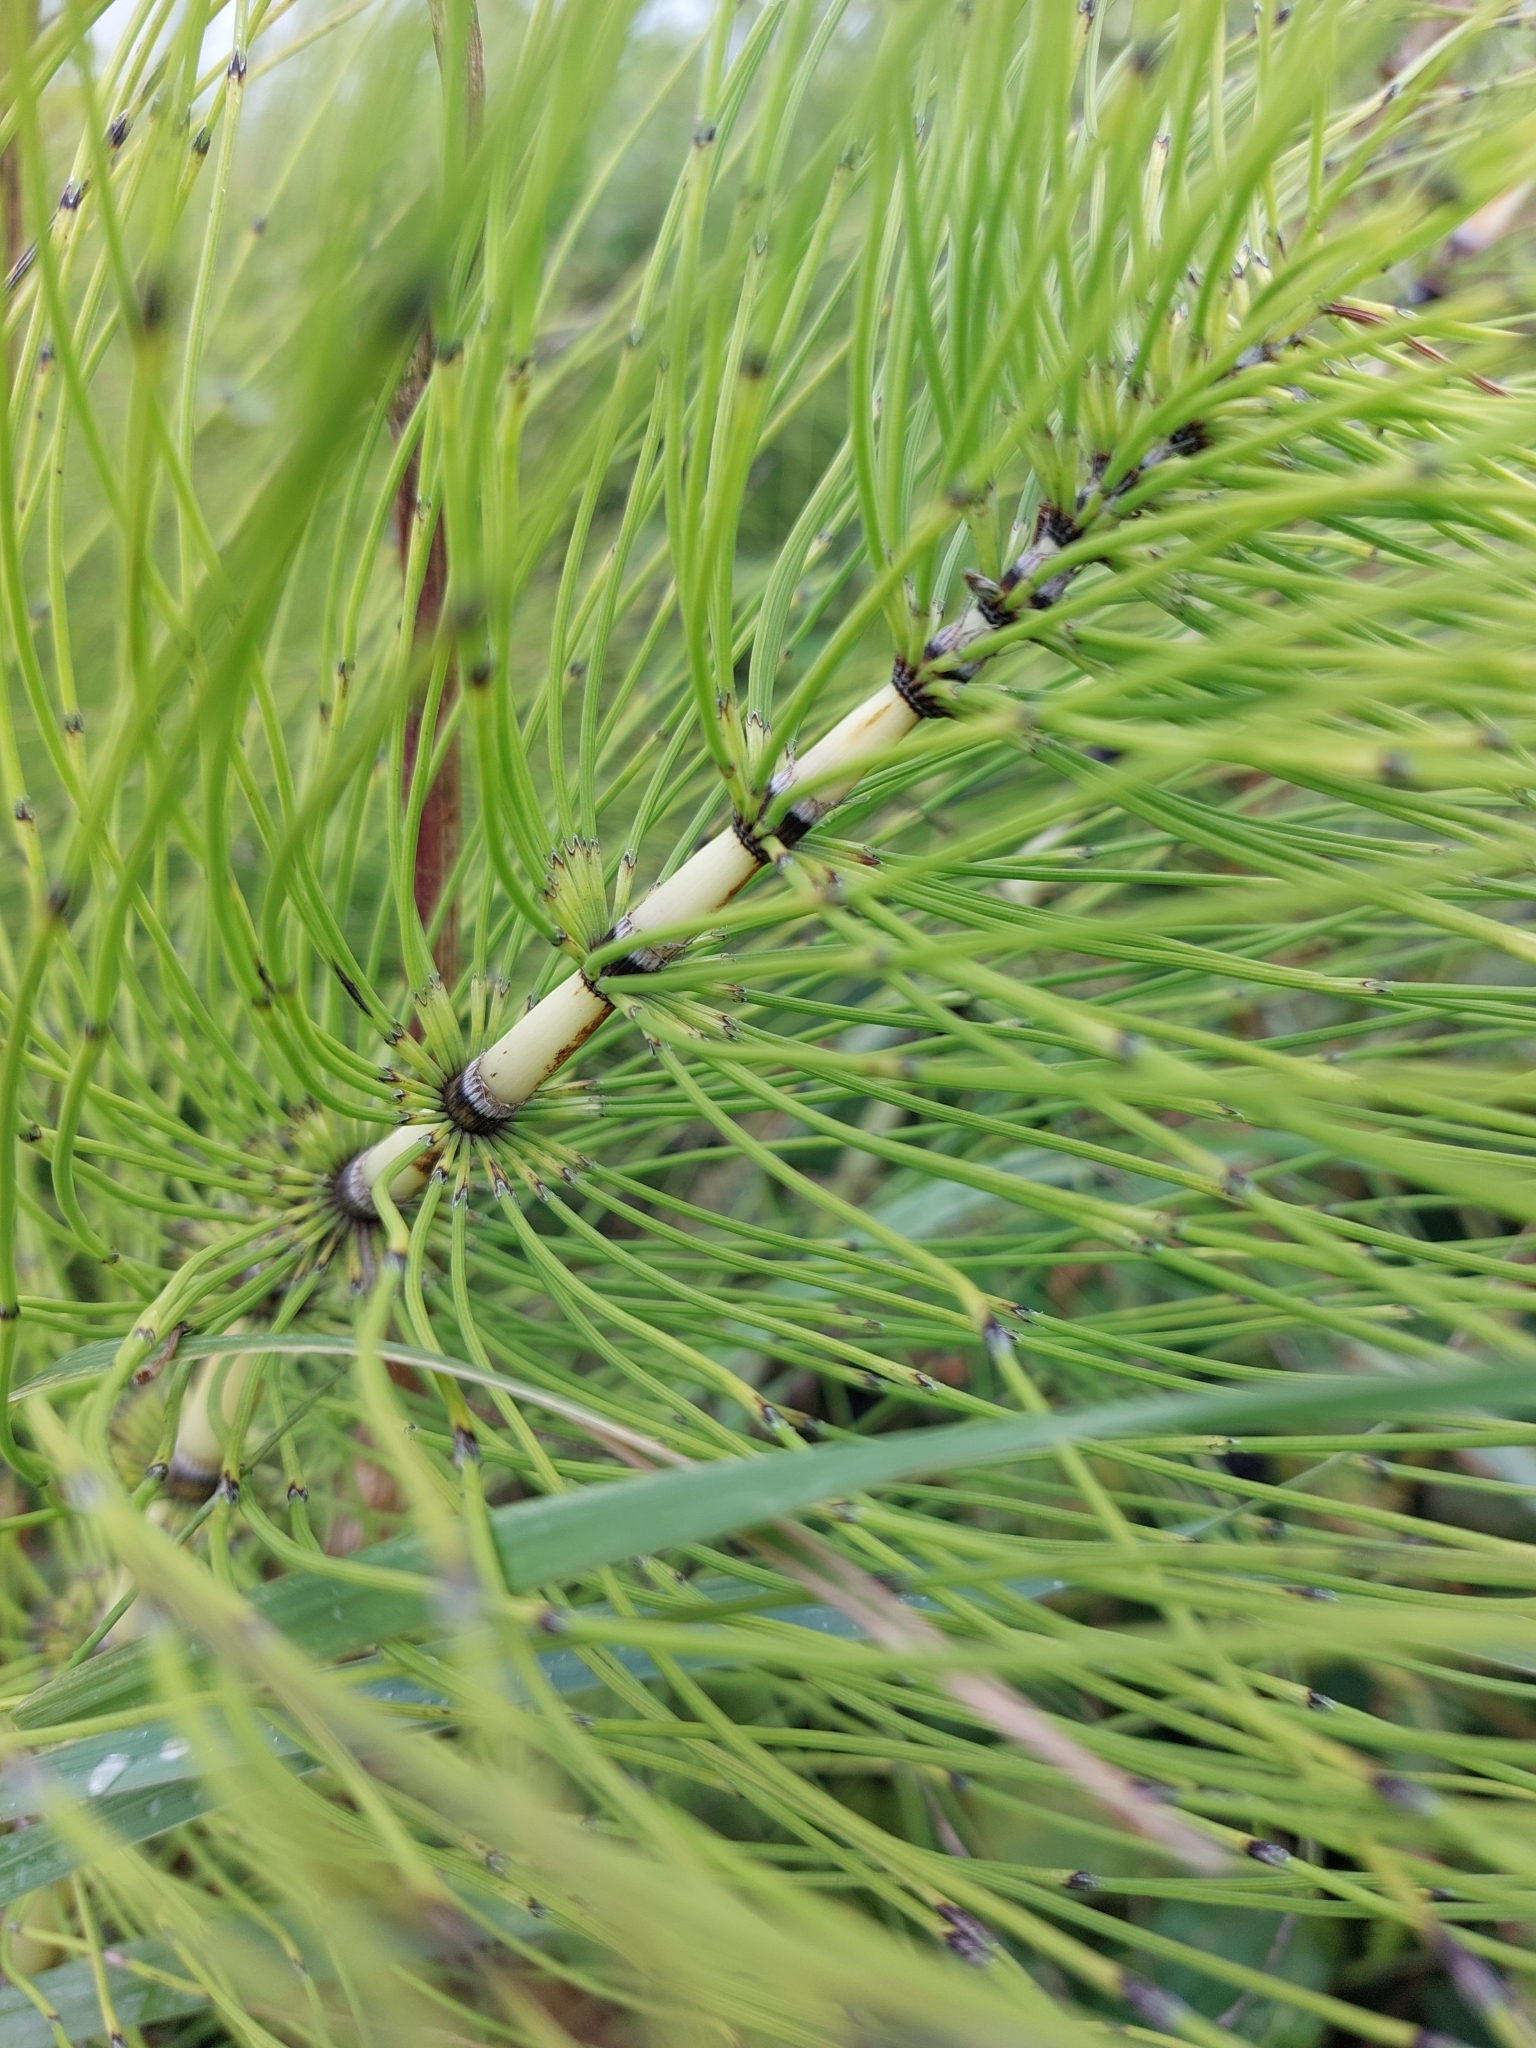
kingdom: Plantae
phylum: Tracheophyta
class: Polypodiopsida
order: Equisetales
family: Equisetaceae
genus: Equisetum
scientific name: Equisetum telmateia
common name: Great horsetail
